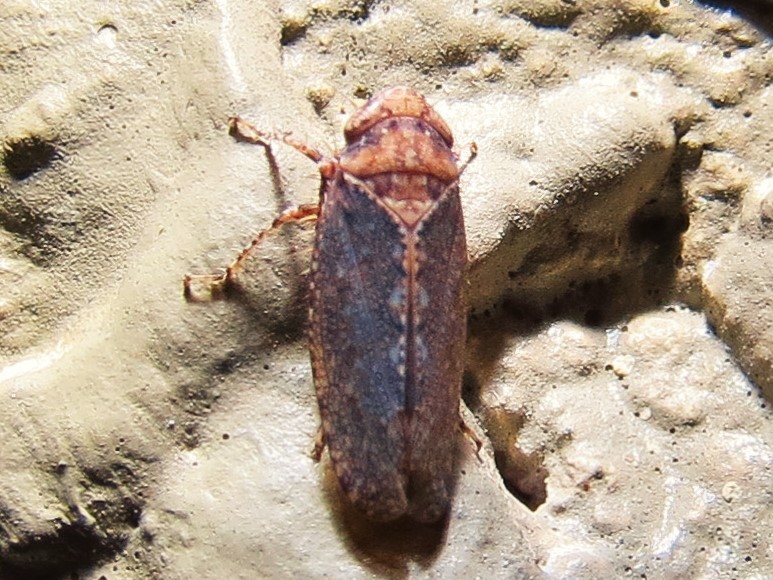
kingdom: Animalia
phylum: Arthropoda
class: Insecta
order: Hemiptera
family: Cicadellidae
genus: Excultanus
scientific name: Excultanus excultus
